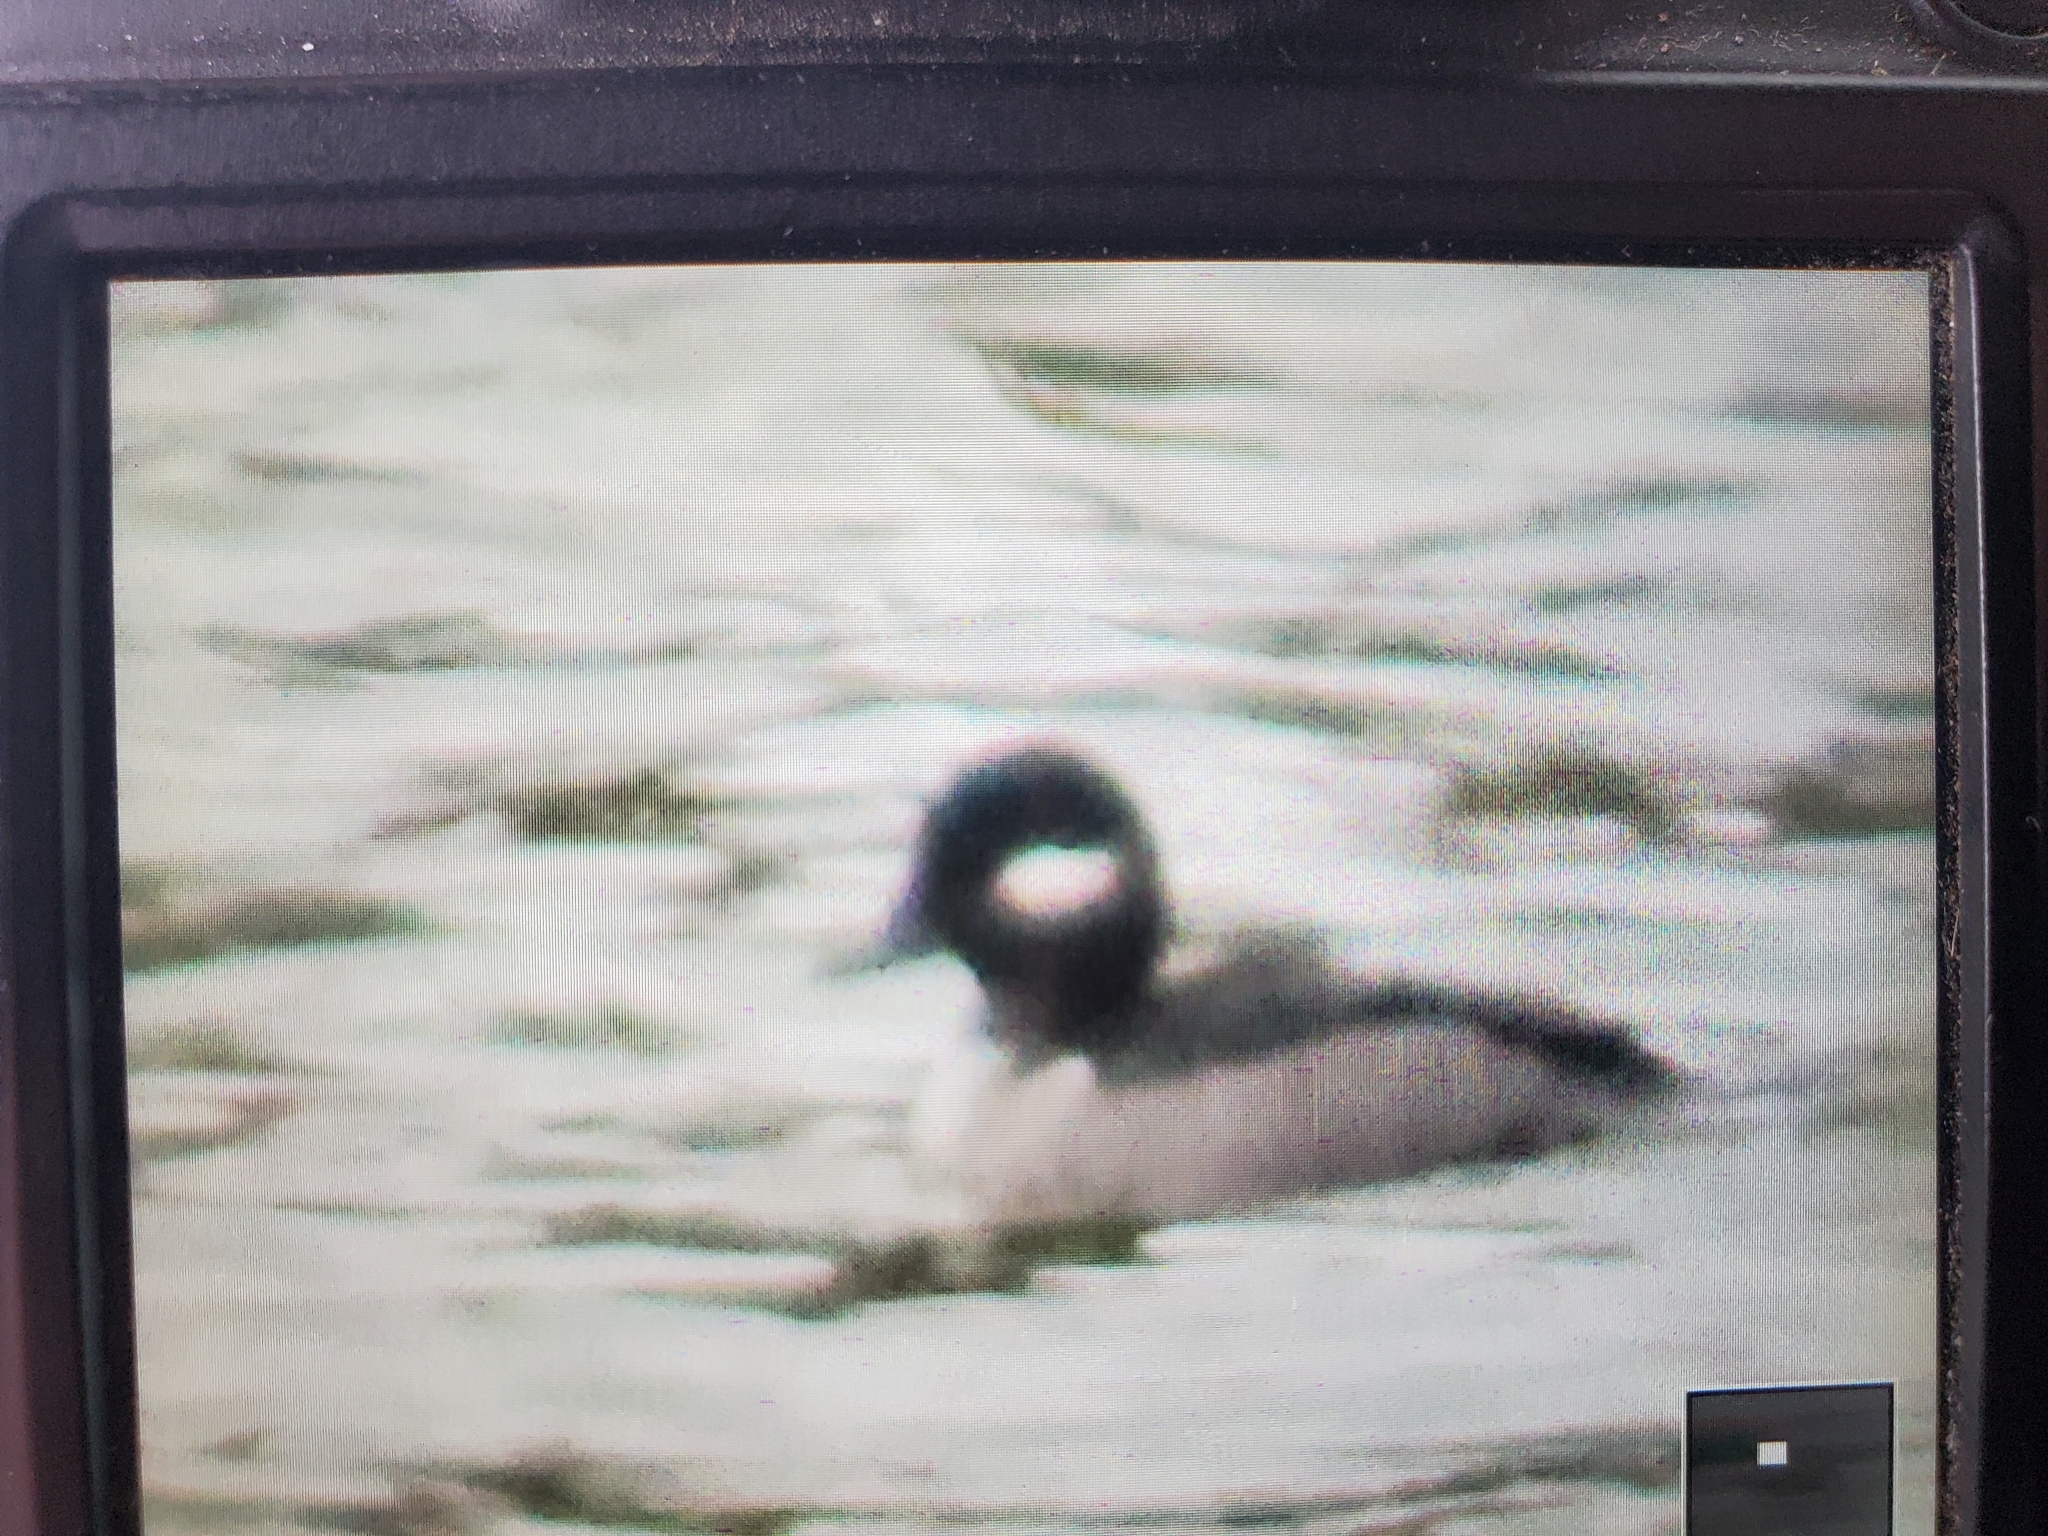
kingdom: Animalia
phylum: Chordata
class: Aves
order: Anseriformes
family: Anatidae
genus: Bucephala
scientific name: Bucephala albeola
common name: Bufflehead
